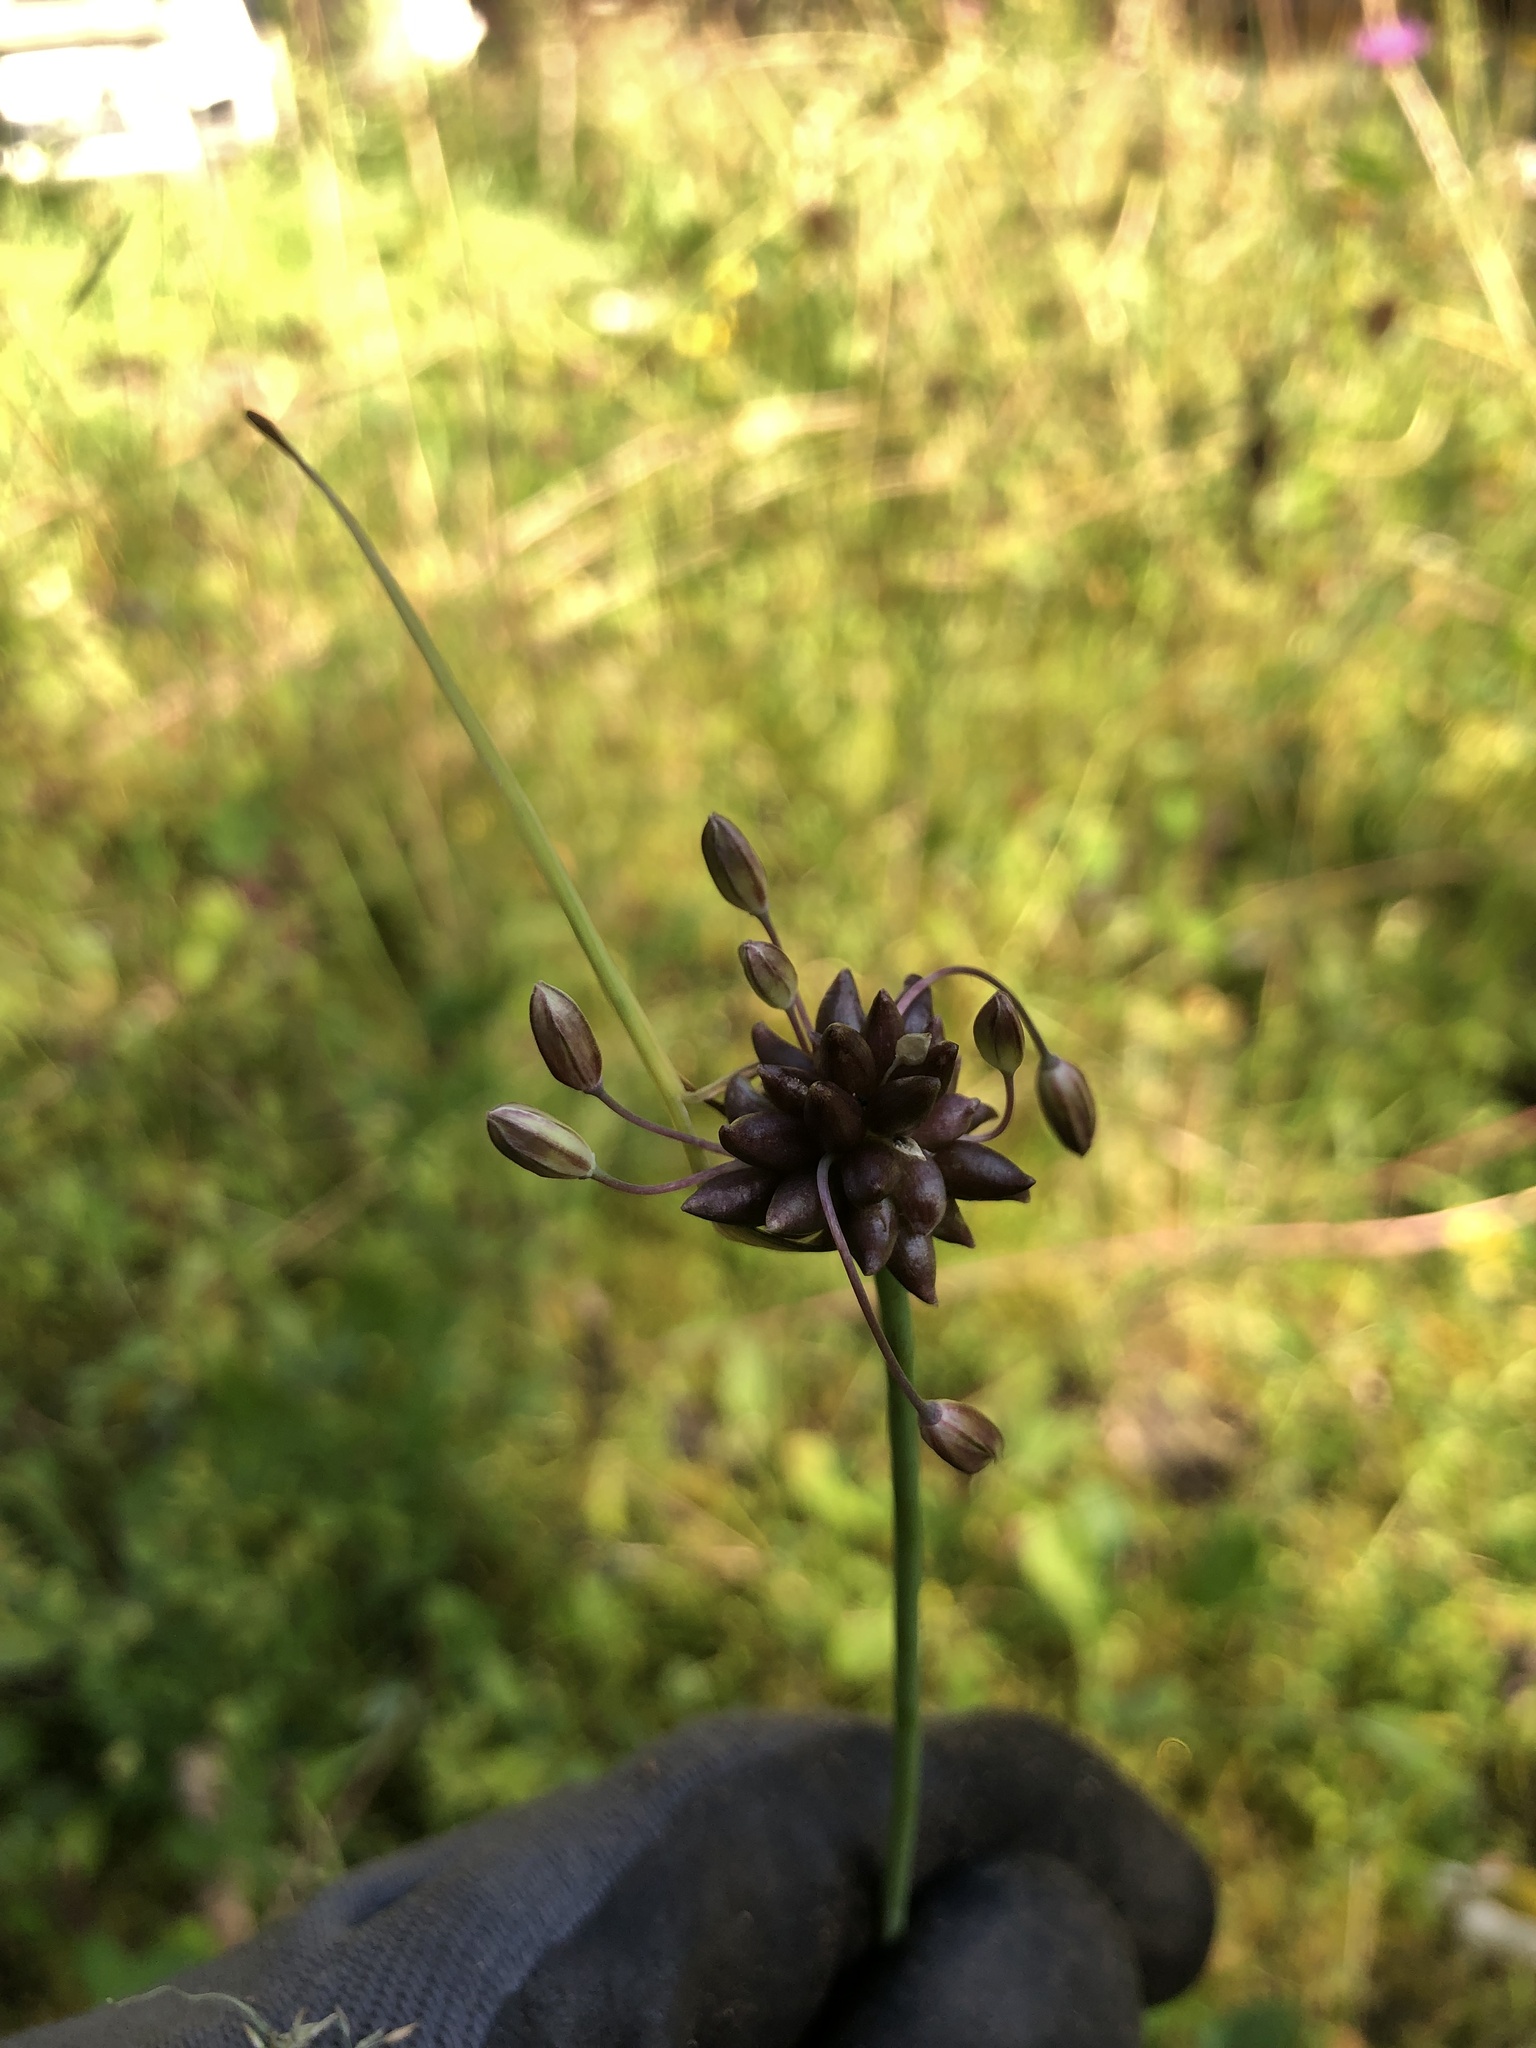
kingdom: Plantae
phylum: Tracheophyta
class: Liliopsida
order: Asparagales
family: Amaryllidaceae
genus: Allium
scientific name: Allium oleraceum
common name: Field garlic
